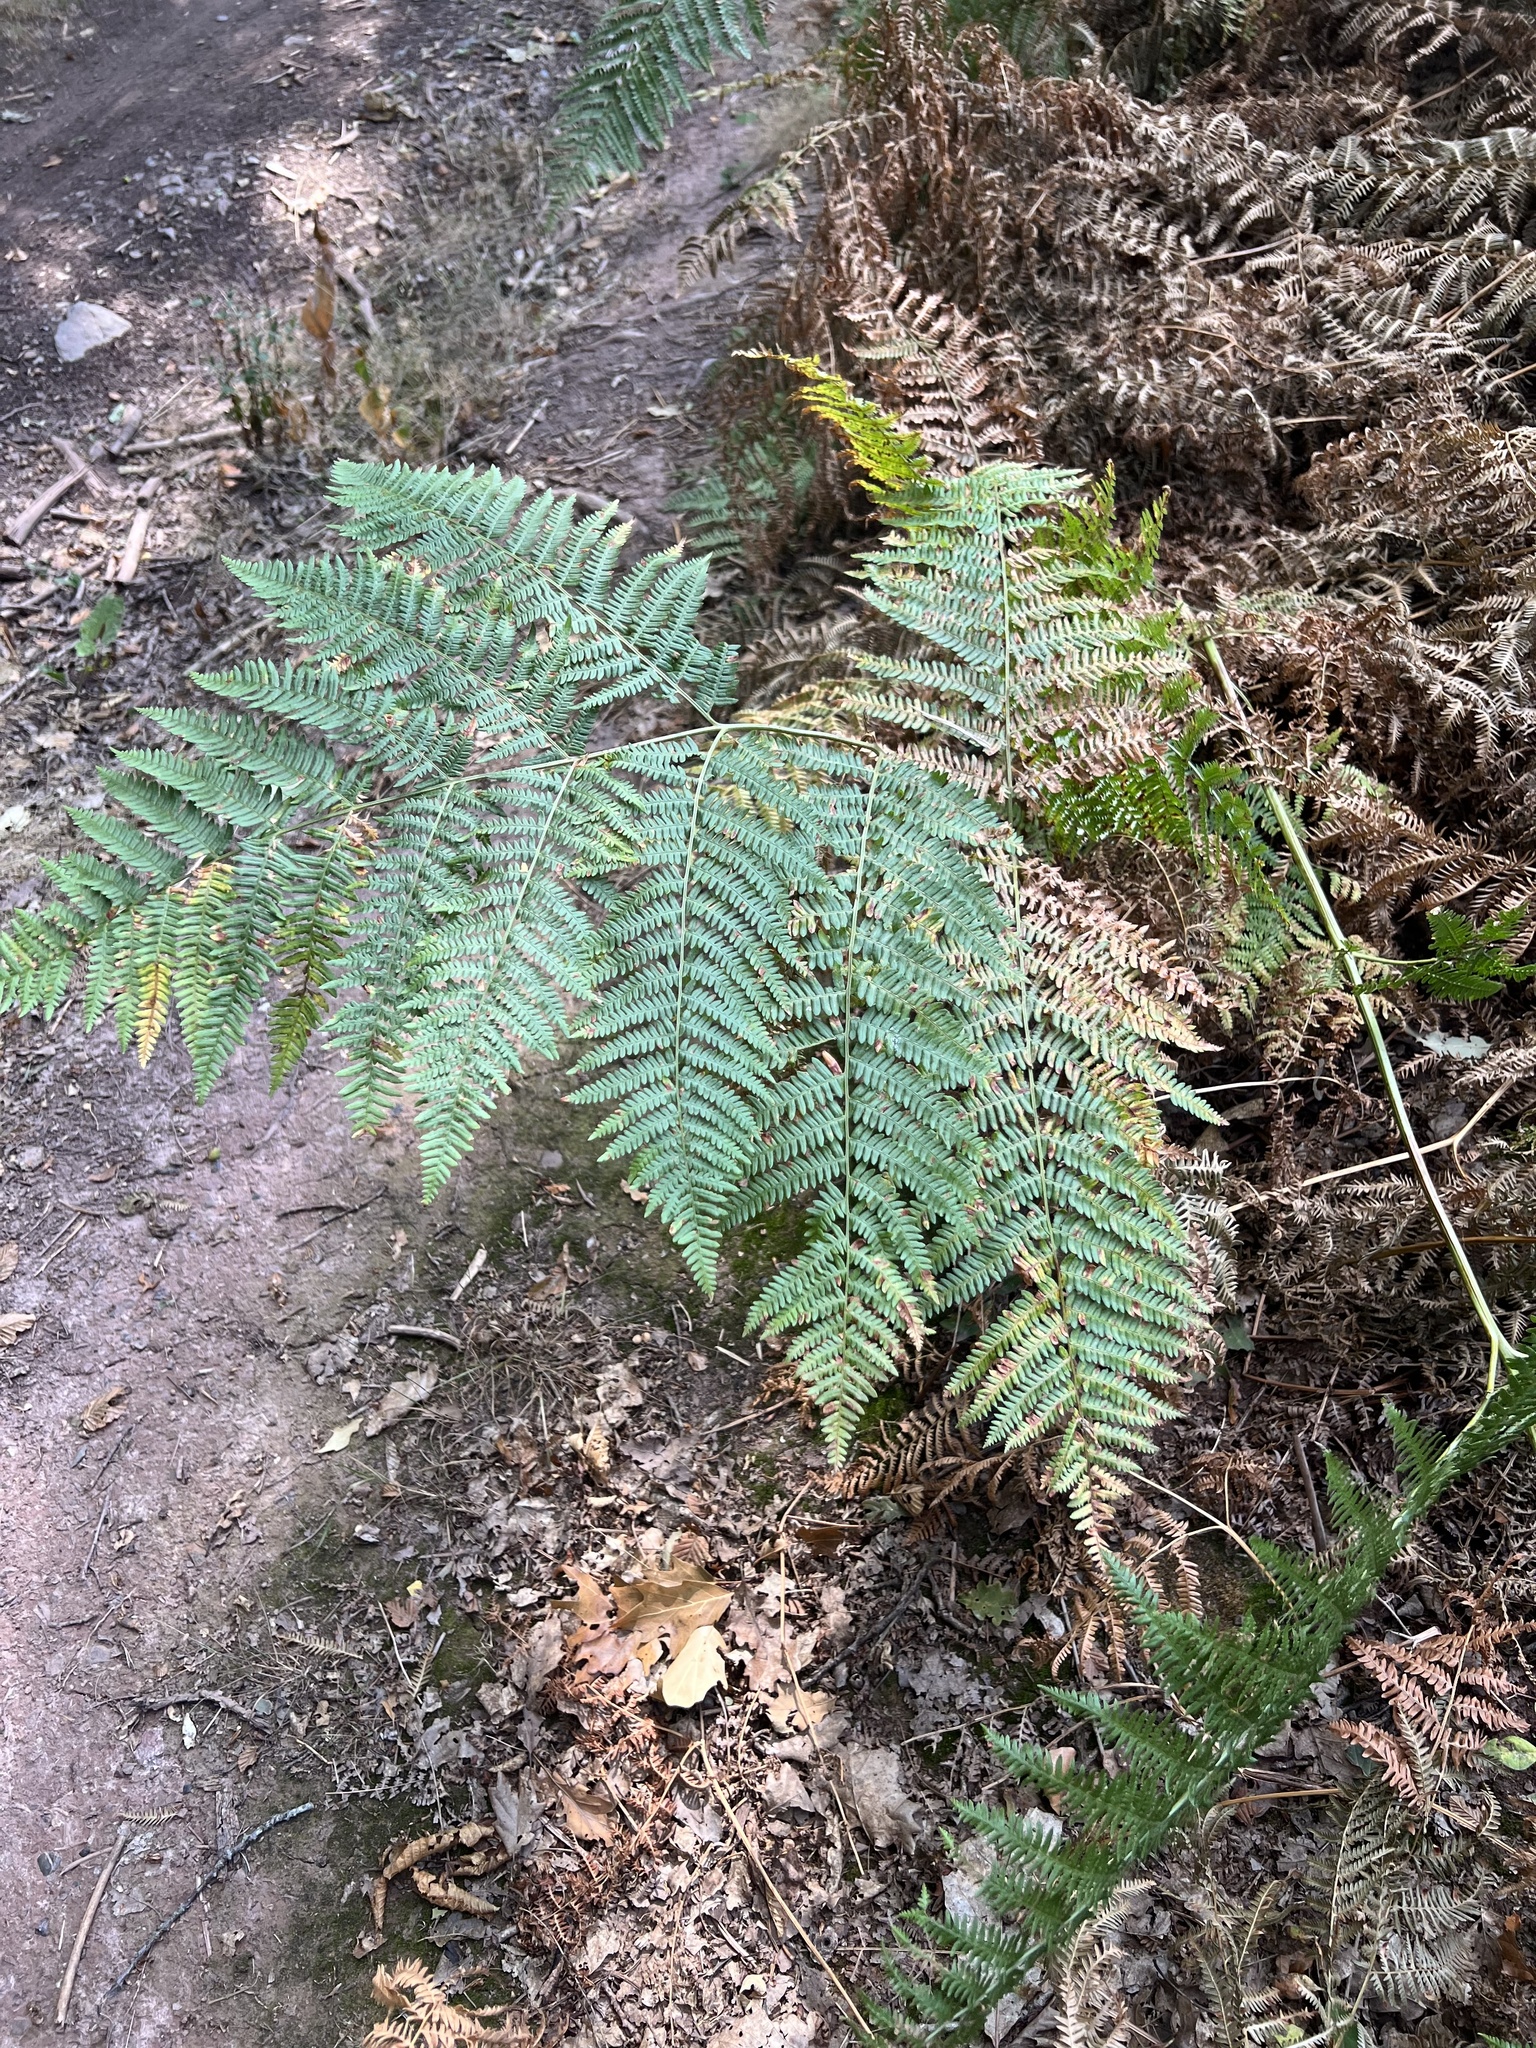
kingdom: Plantae
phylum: Tracheophyta
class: Polypodiopsida
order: Polypodiales
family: Dennstaedtiaceae
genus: Pteridium
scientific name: Pteridium aquilinum
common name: Bracken
